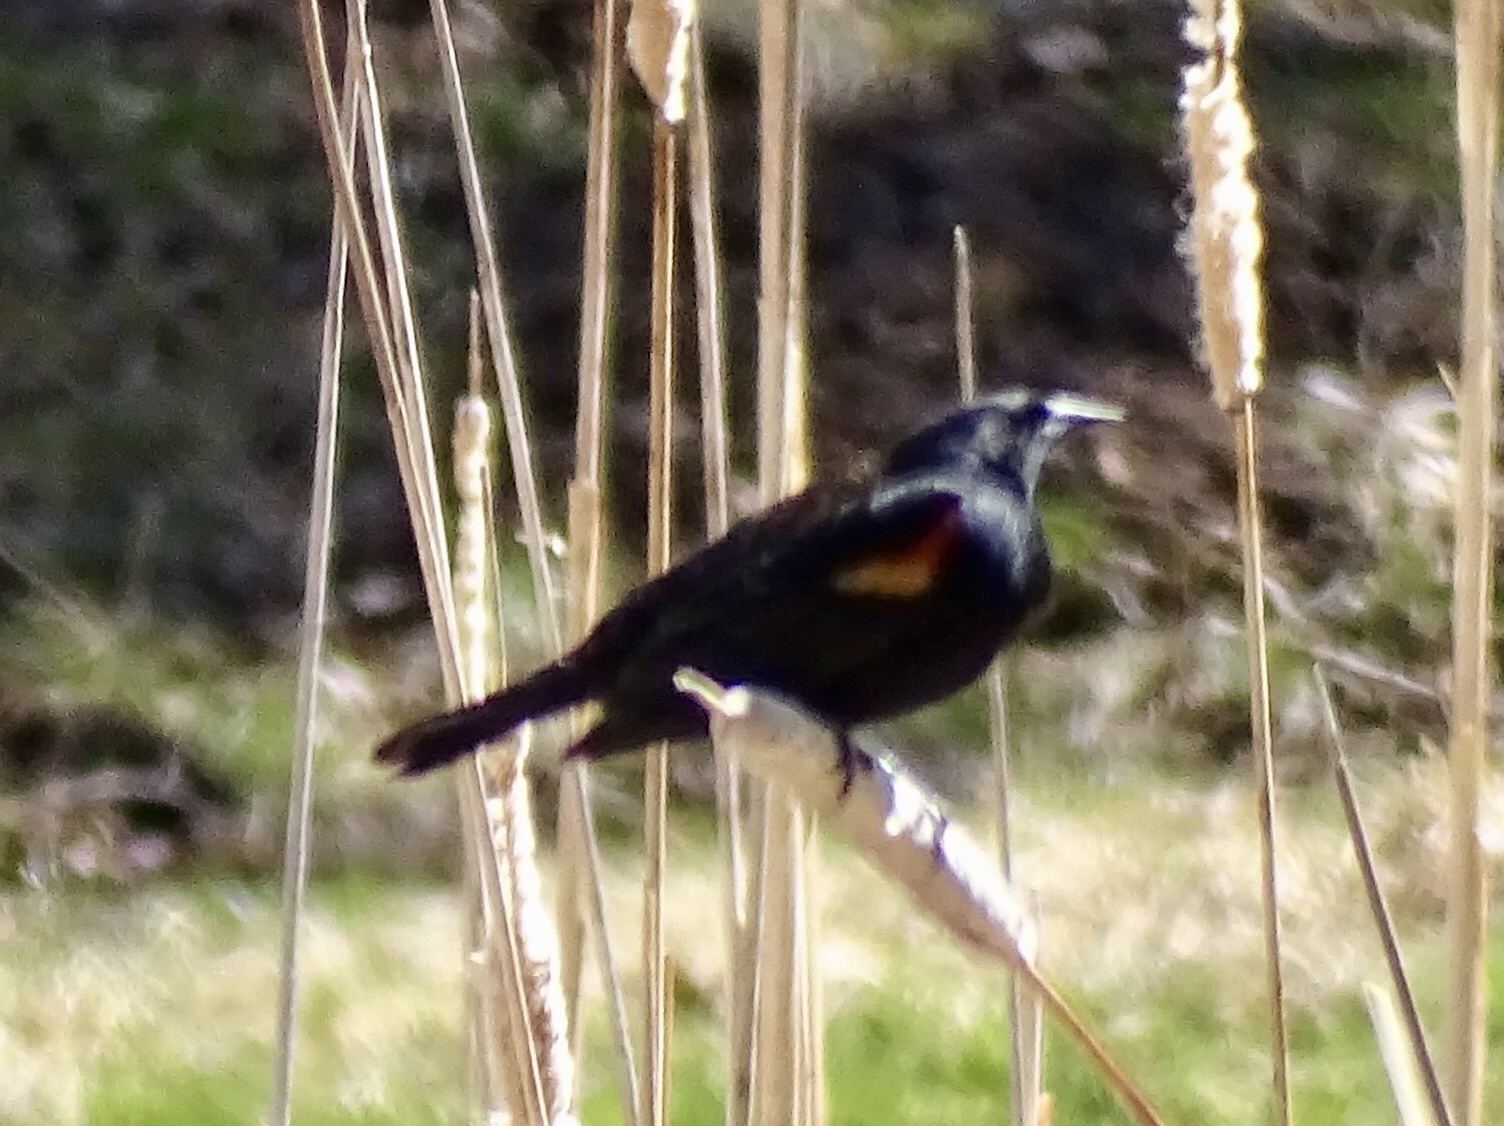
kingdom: Animalia
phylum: Chordata
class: Aves
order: Passeriformes
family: Icteridae
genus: Agelaius
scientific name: Agelaius phoeniceus
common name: Red-winged blackbird
